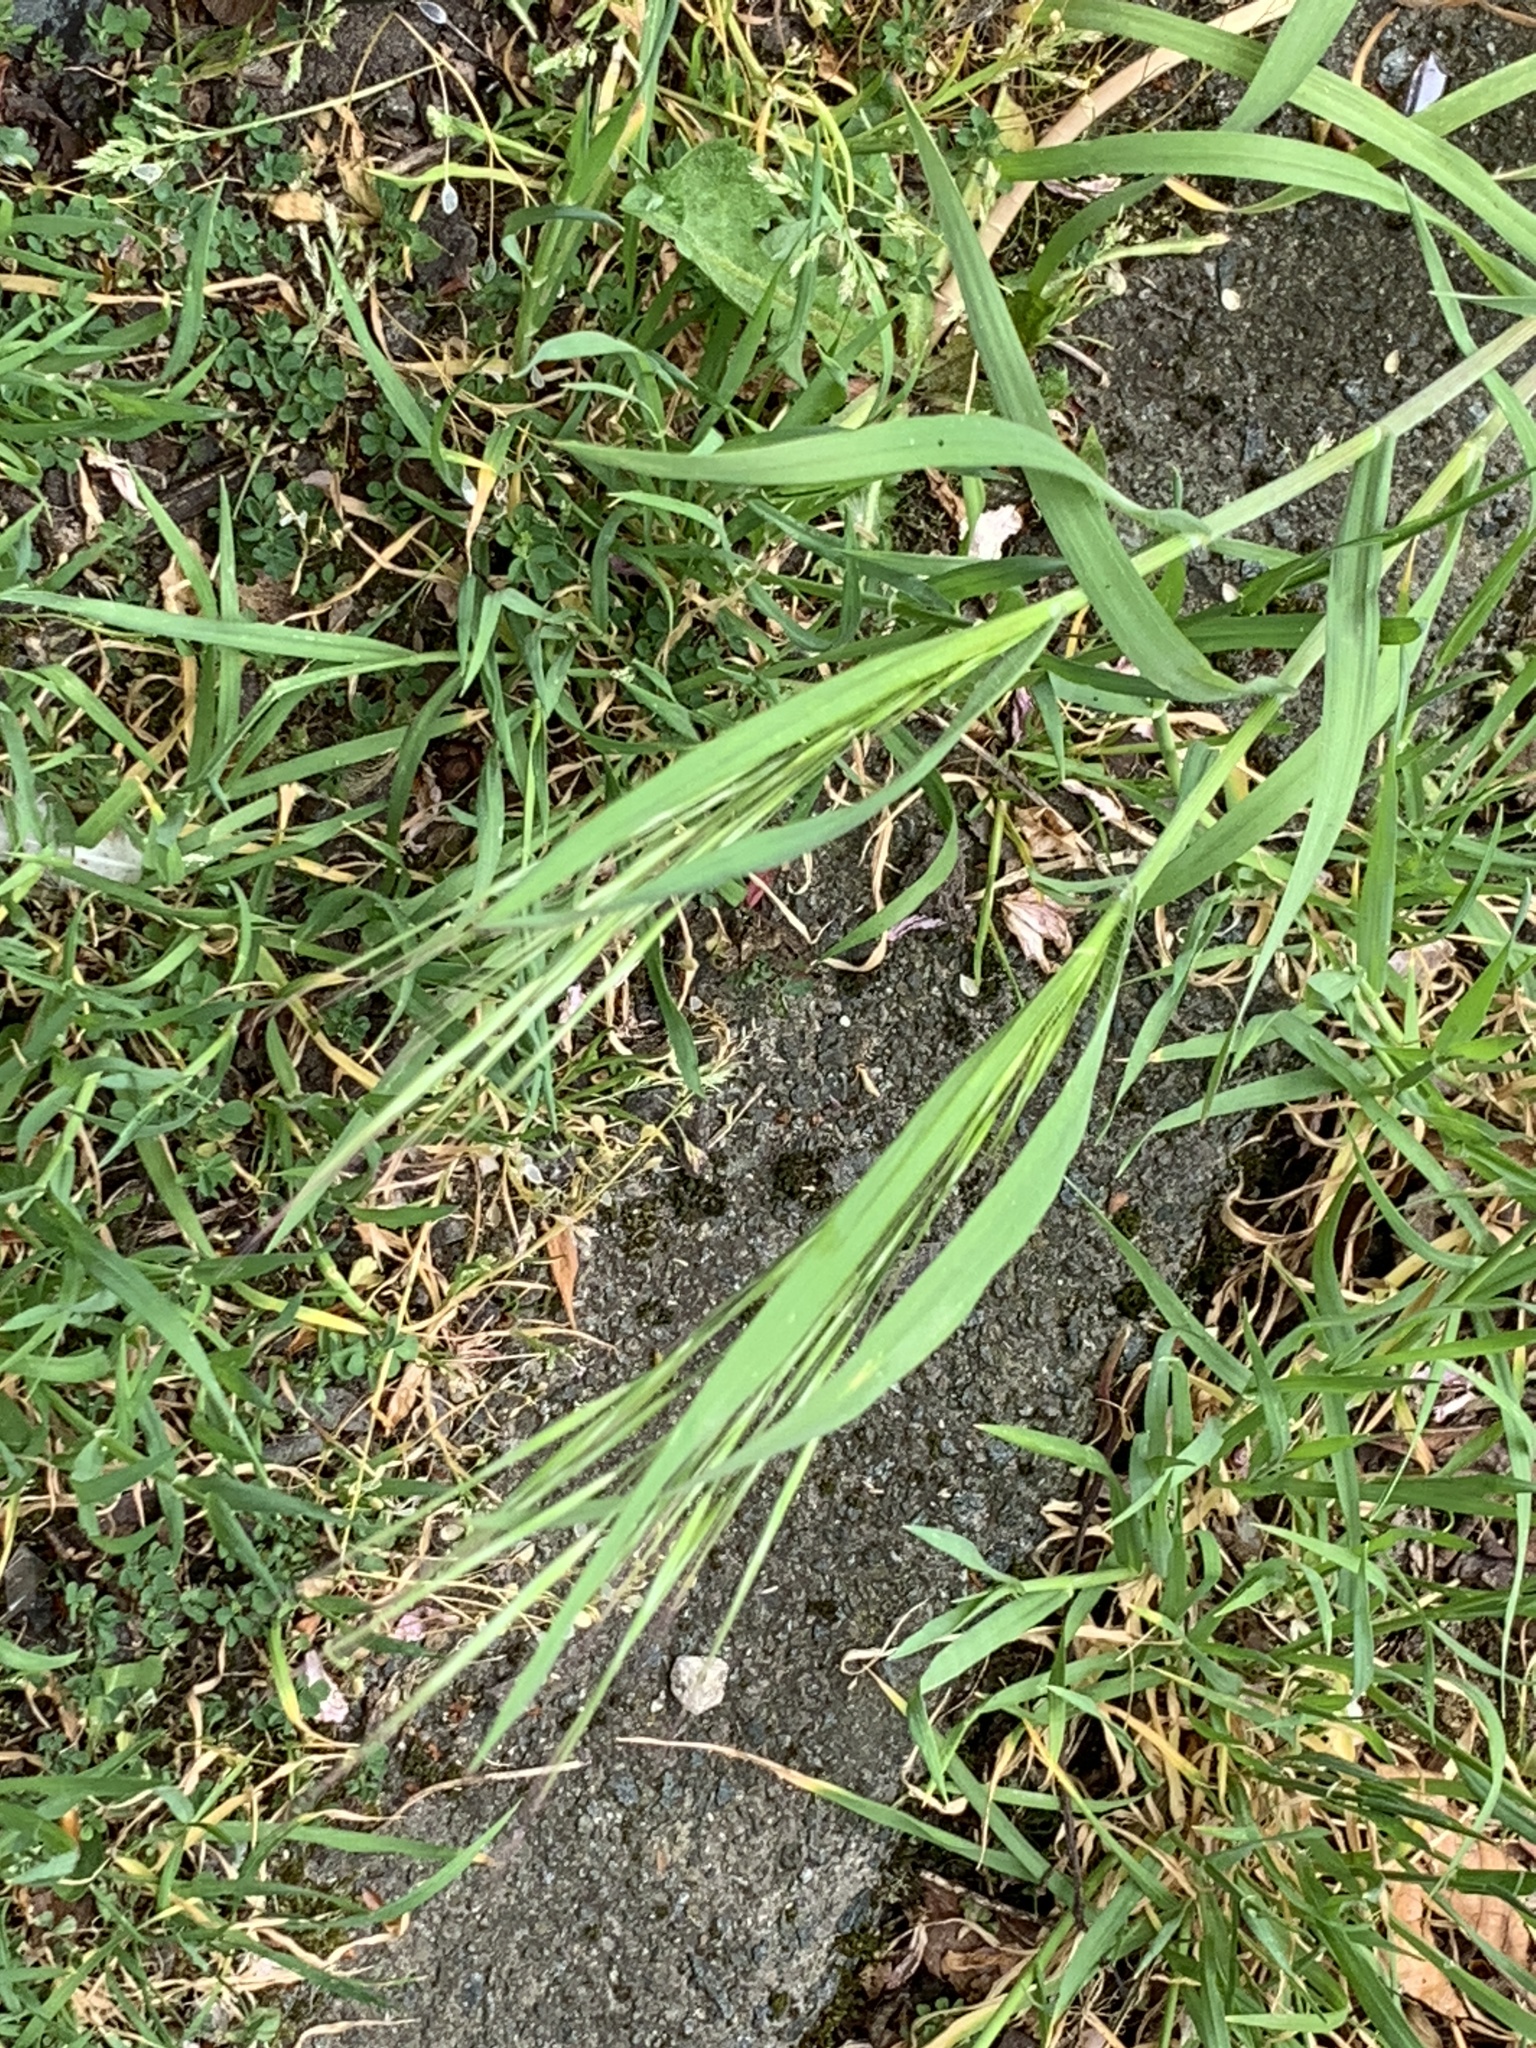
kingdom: Plantae
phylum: Tracheophyta
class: Liliopsida
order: Poales
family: Poaceae
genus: Bromus
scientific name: Bromus sterilis
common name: Poverty brome
